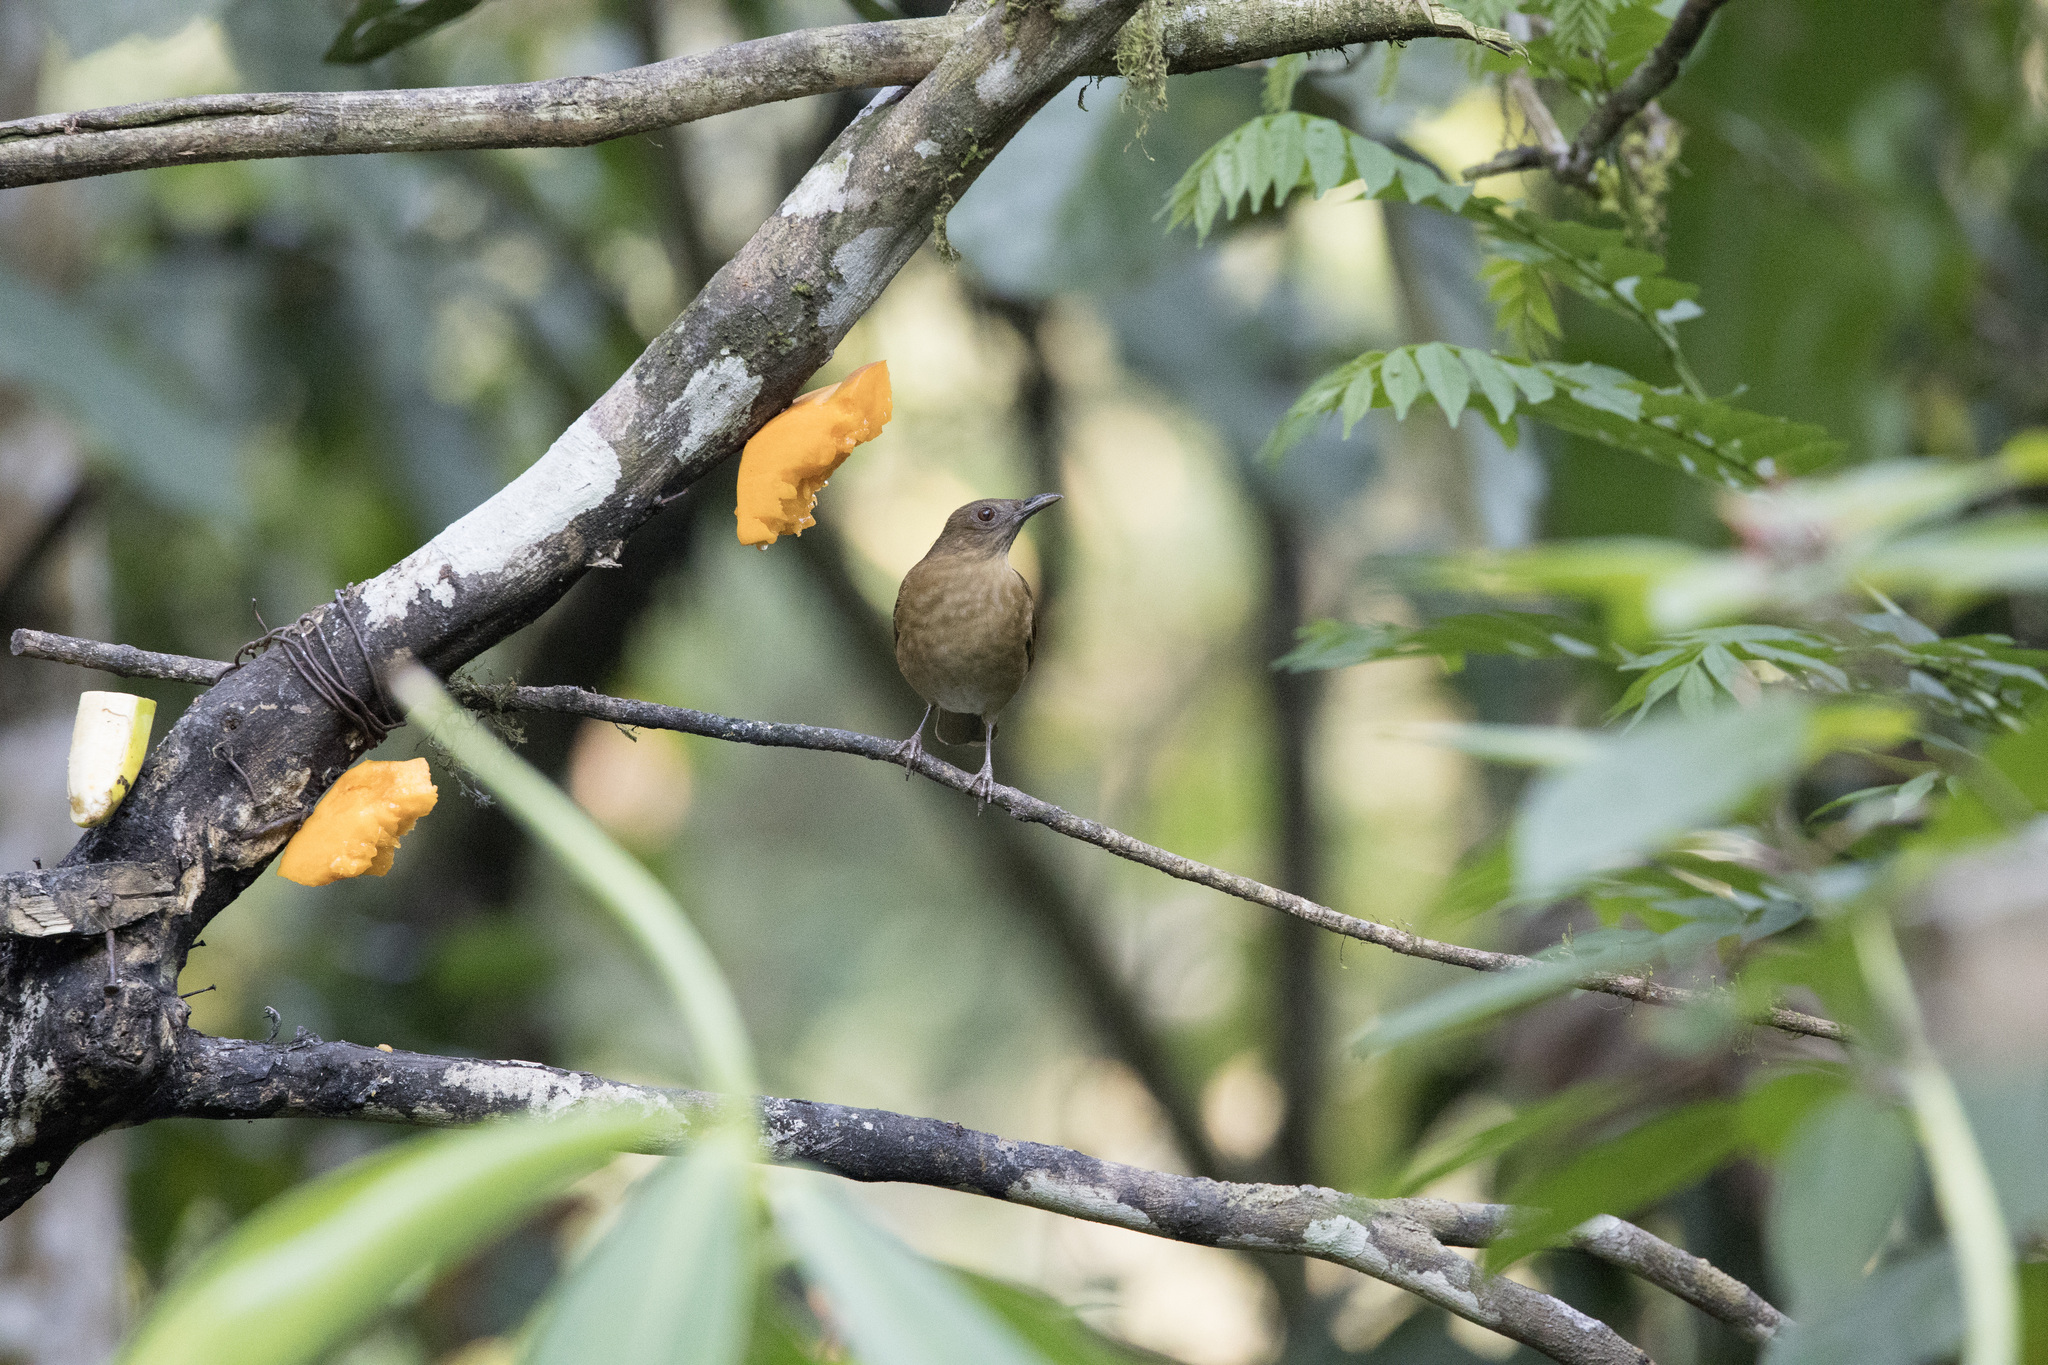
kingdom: Animalia
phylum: Chordata
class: Aves
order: Passeriformes
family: Turdidae
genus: Turdus
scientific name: Turdus ignobilis
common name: Black-billed thrush
